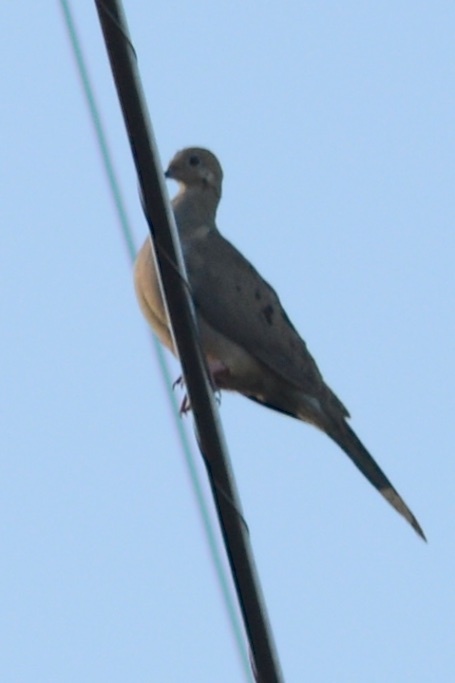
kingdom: Animalia
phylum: Chordata
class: Aves
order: Columbiformes
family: Columbidae
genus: Zenaida
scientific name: Zenaida macroura
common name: Mourning dove
